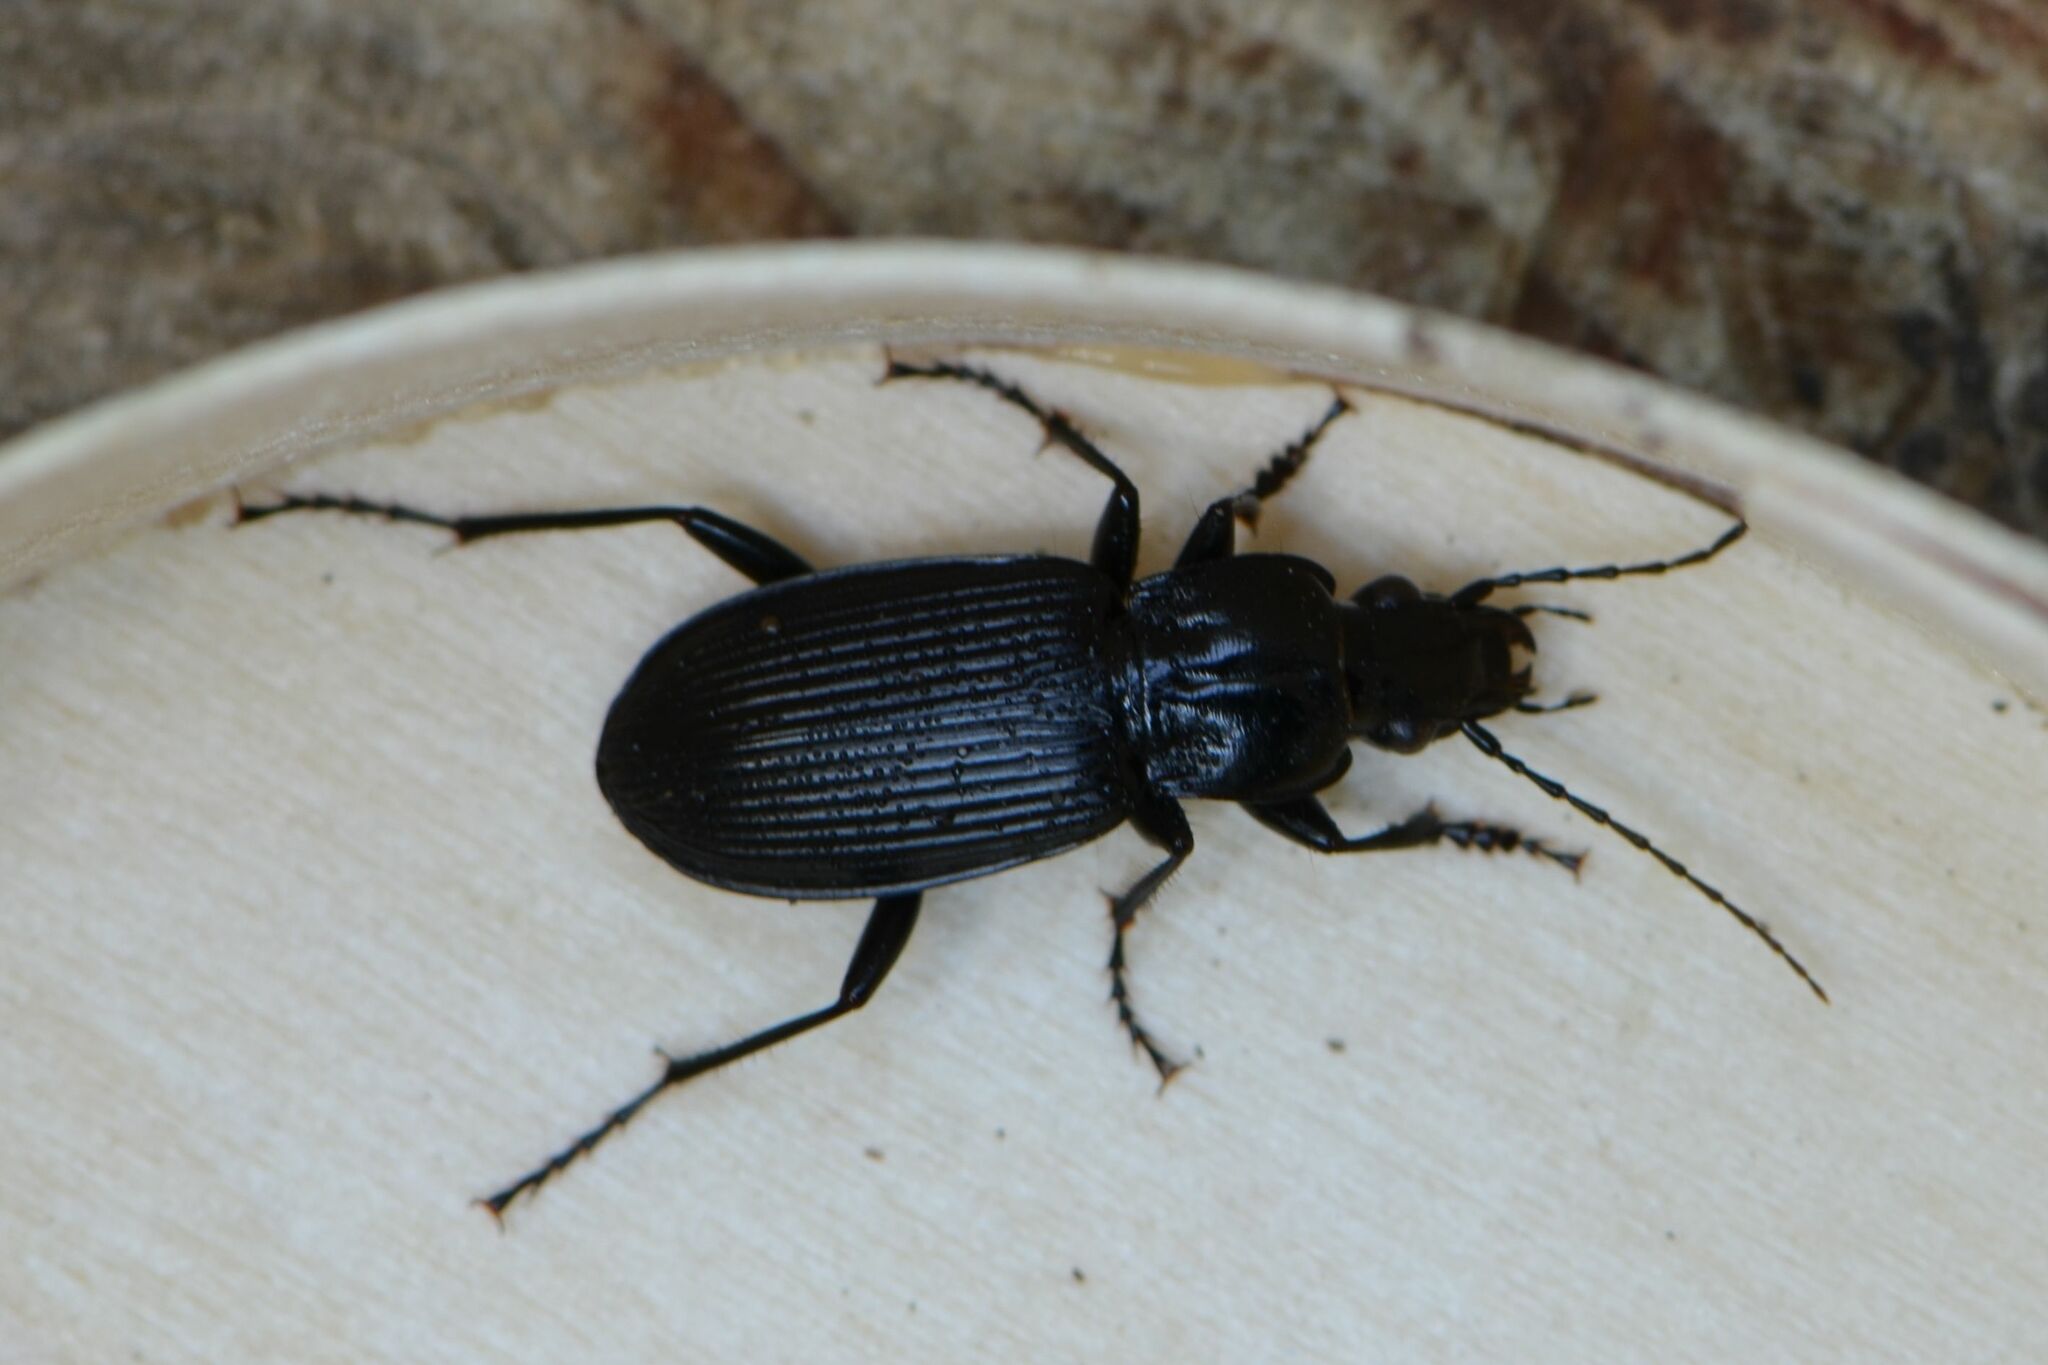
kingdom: Animalia
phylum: Arthropoda
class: Insecta
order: Coleoptera
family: Carabidae
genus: Pterostichus
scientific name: Pterostichus niger
